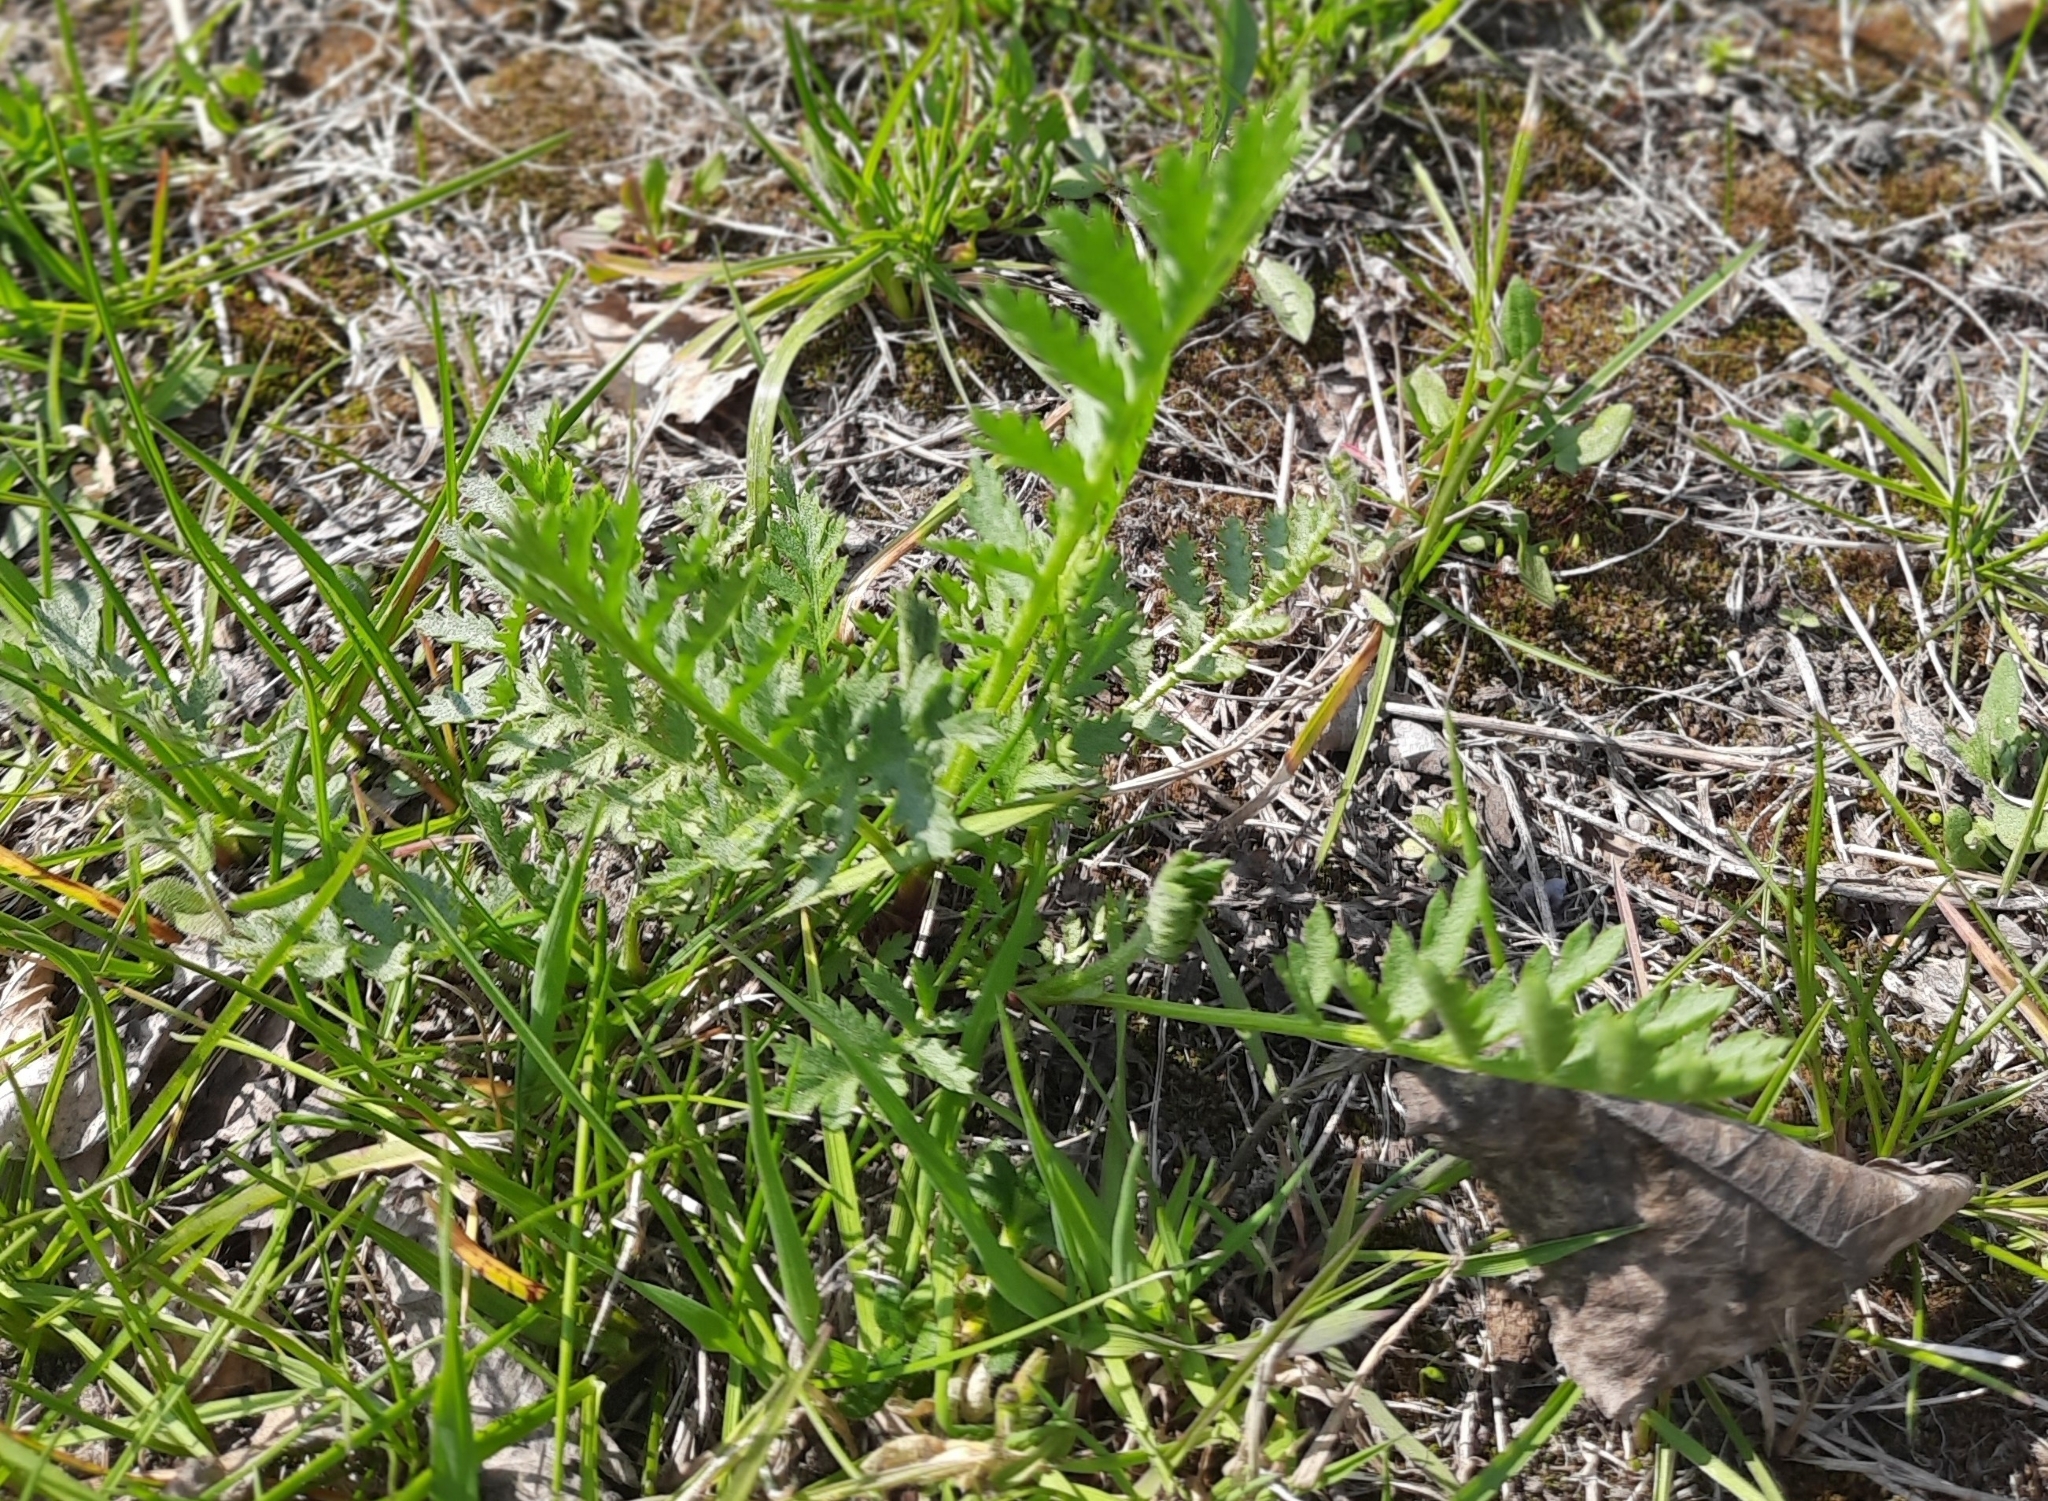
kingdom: Plantae
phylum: Tracheophyta
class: Magnoliopsida
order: Asterales
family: Asteraceae
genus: Tanacetum
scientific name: Tanacetum vulgare
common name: Common tansy
